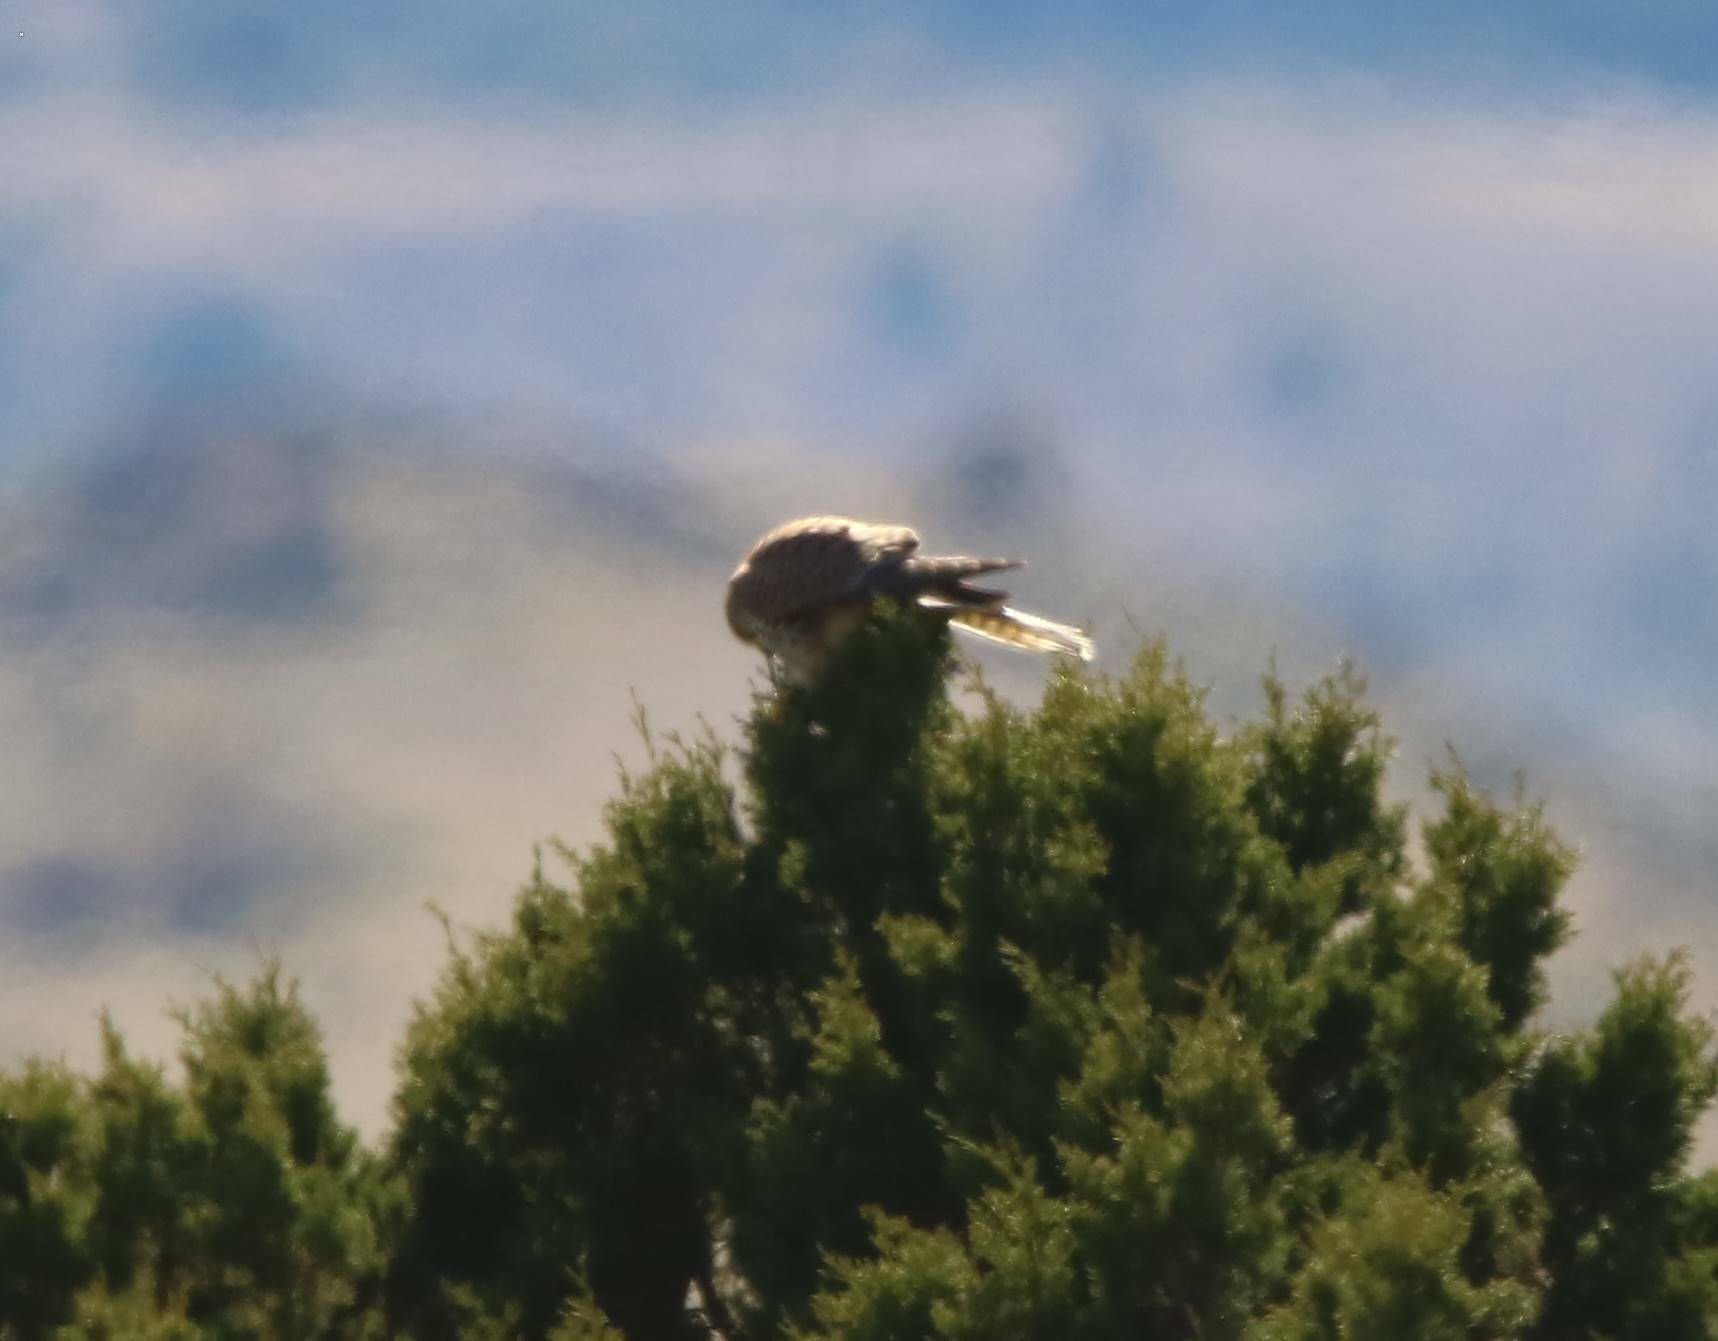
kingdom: Animalia
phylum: Chordata
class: Aves
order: Falconiformes
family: Falconidae
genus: Falco
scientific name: Falco tinnunculus
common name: Common kestrel
